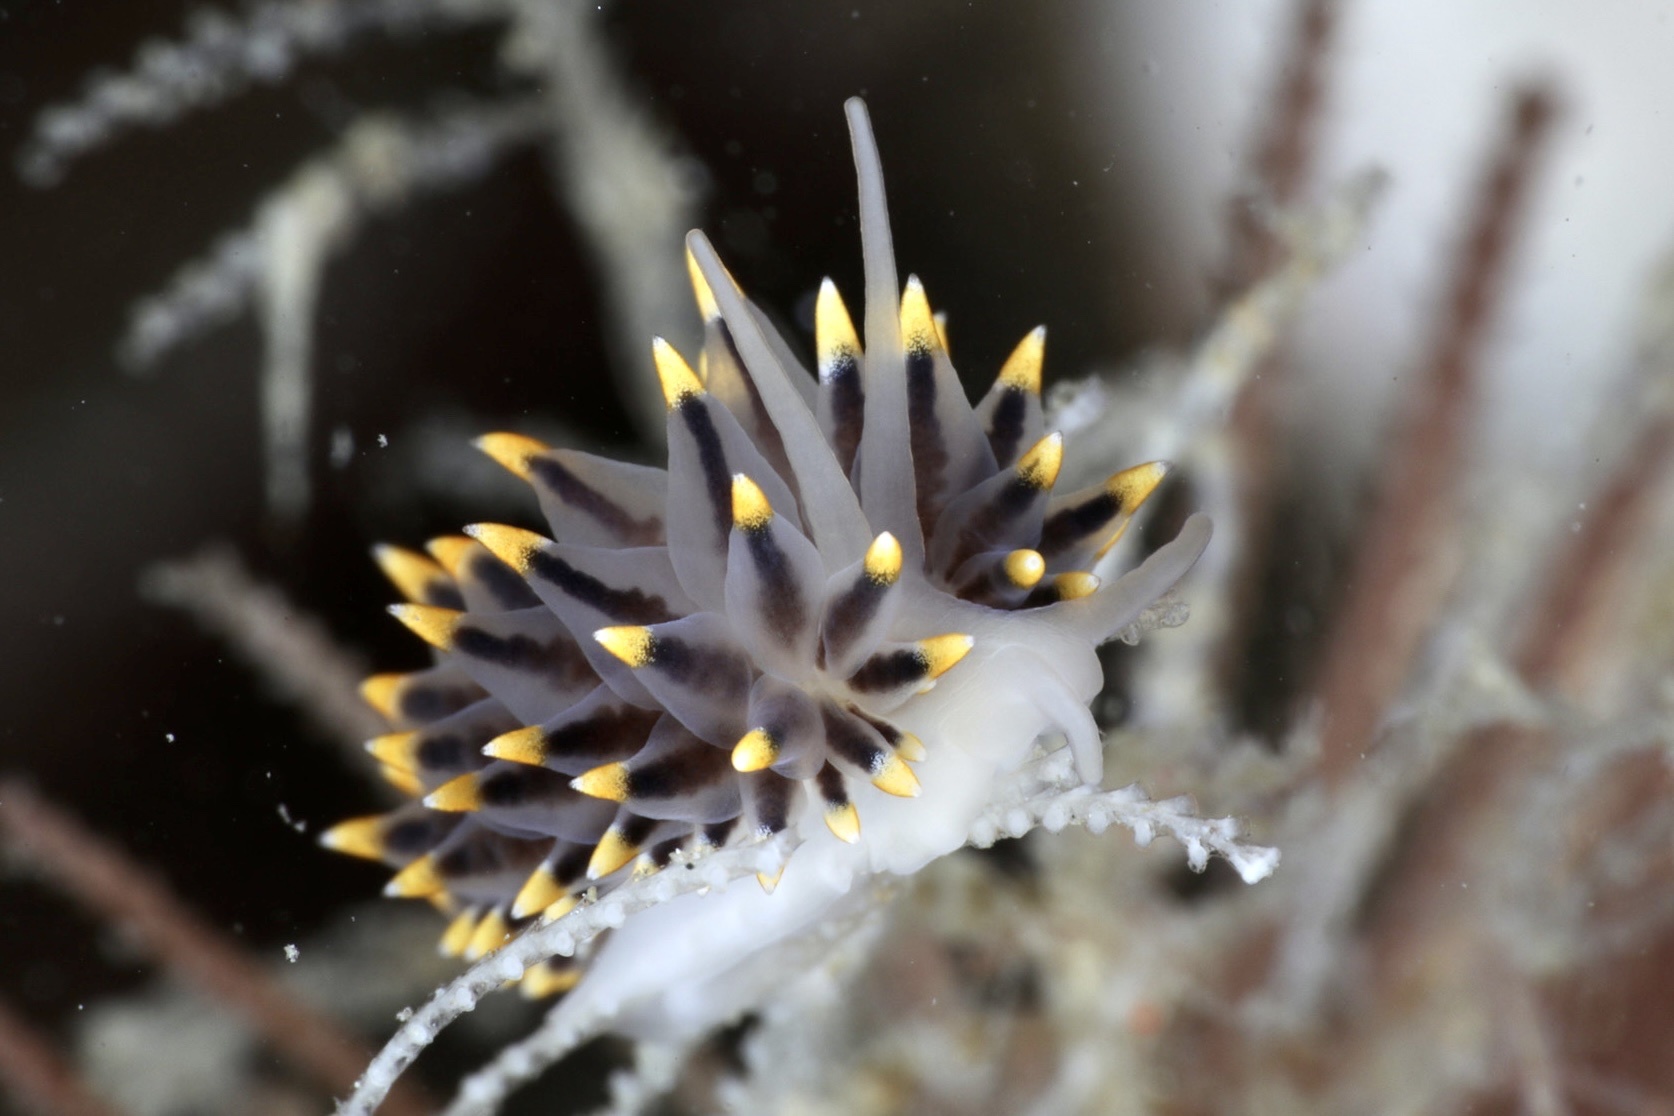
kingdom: Animalia
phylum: Mollusca
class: Gastropoda
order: Nudibranchia
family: Eubranchidae
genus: Eubranchus
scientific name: Eubranchus tricolor
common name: Painted balloon aeolis
